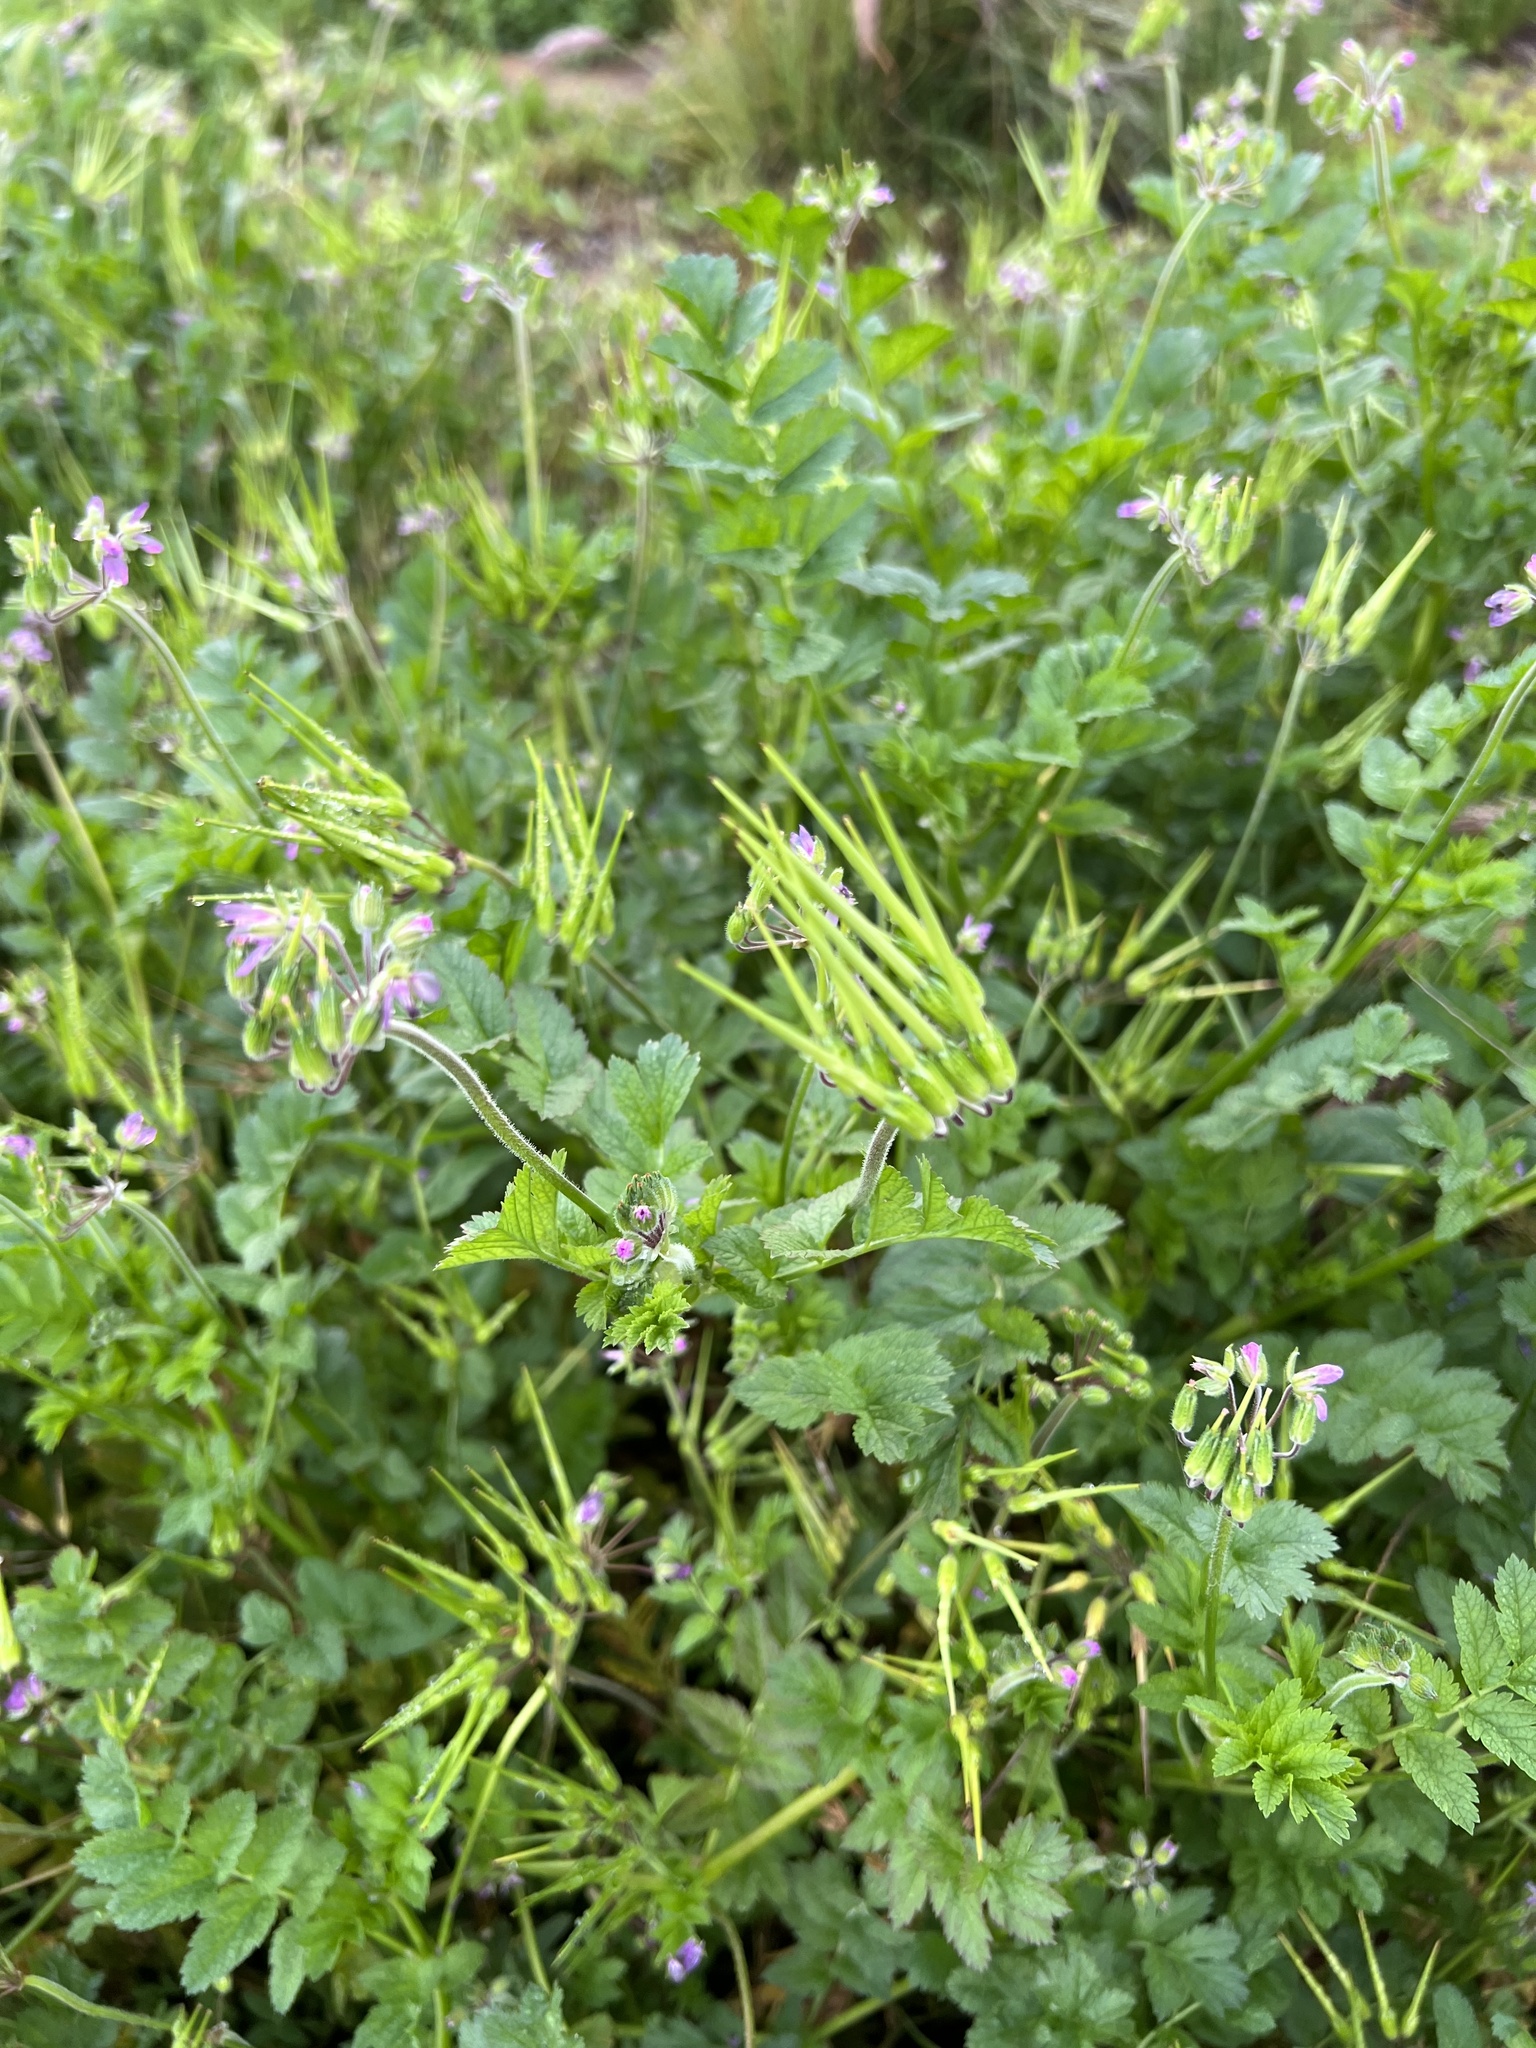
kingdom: Plantae
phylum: Tracheophyta
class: Magnoliopsida
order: Geraniales
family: Geraniaceae
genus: Erodium
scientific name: Erodium moschatum
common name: Musk stork's-bill
